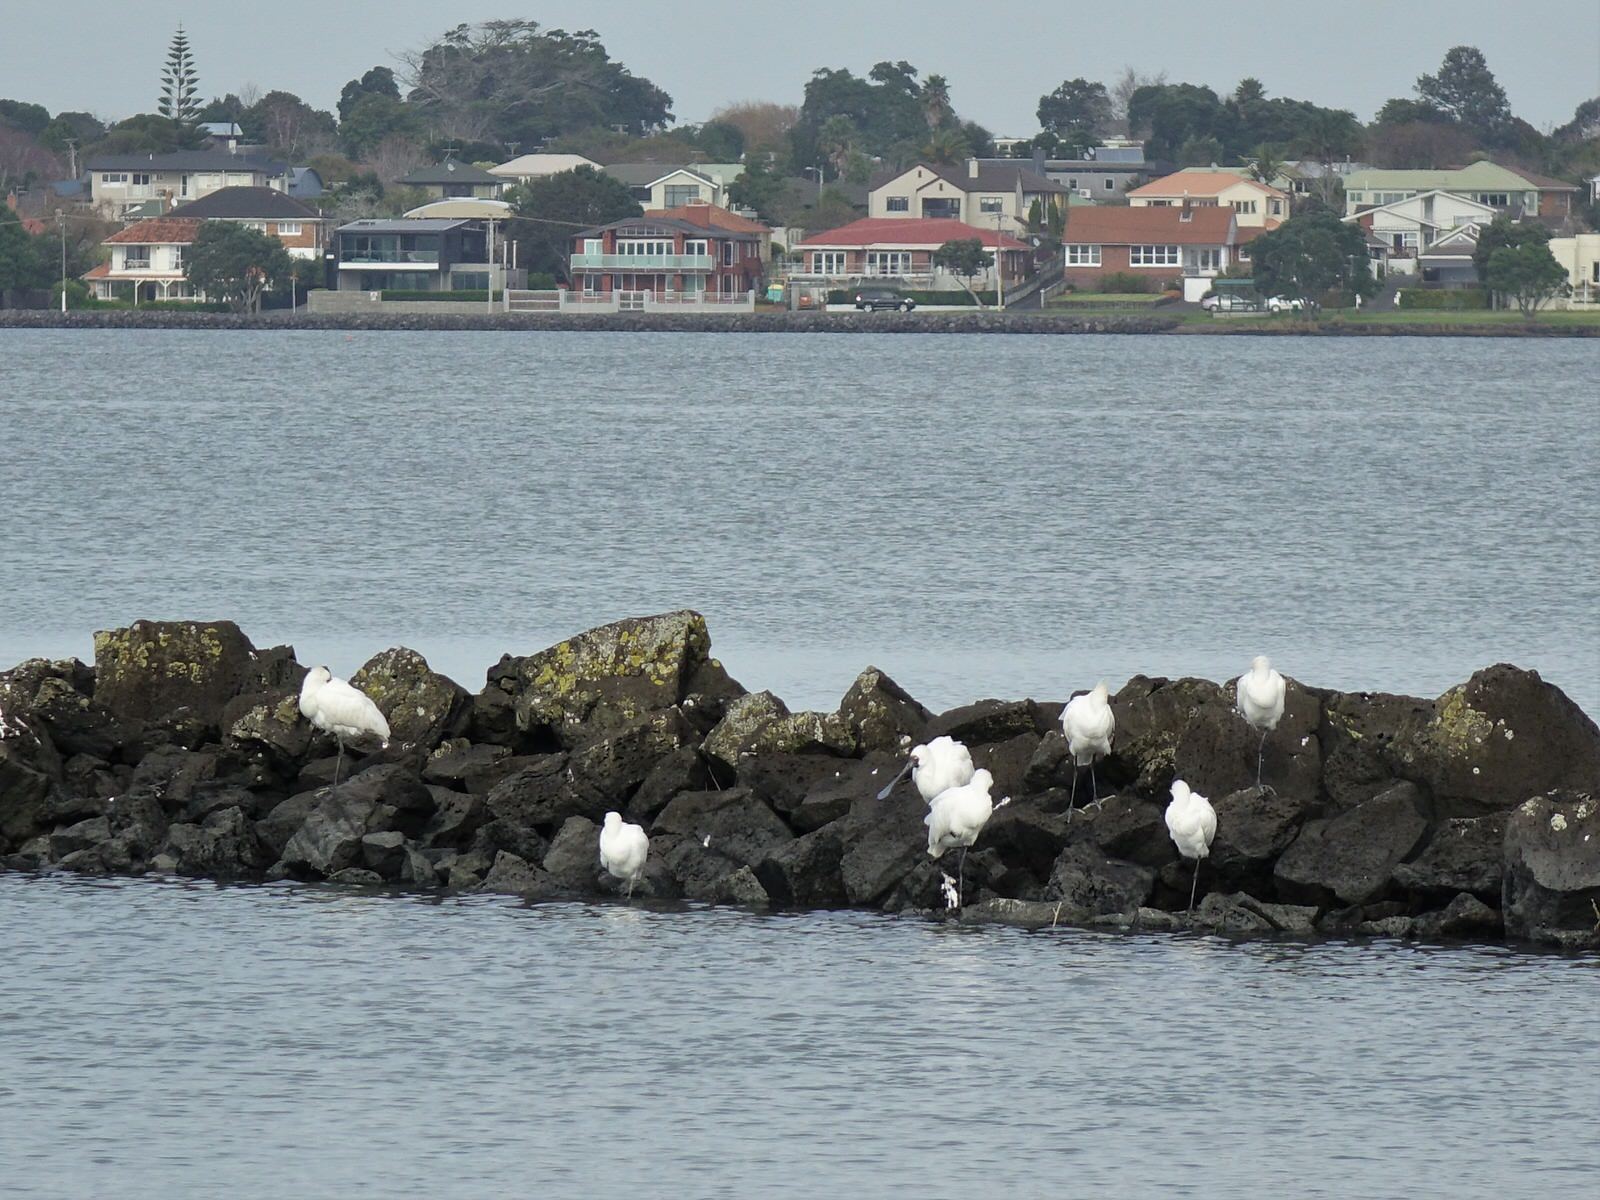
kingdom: Animalia
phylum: Chordata
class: Aves
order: Pelecaniformes
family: Threskiornithidae
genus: Platalea
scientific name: Platalea regia
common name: Royal spoonbill
